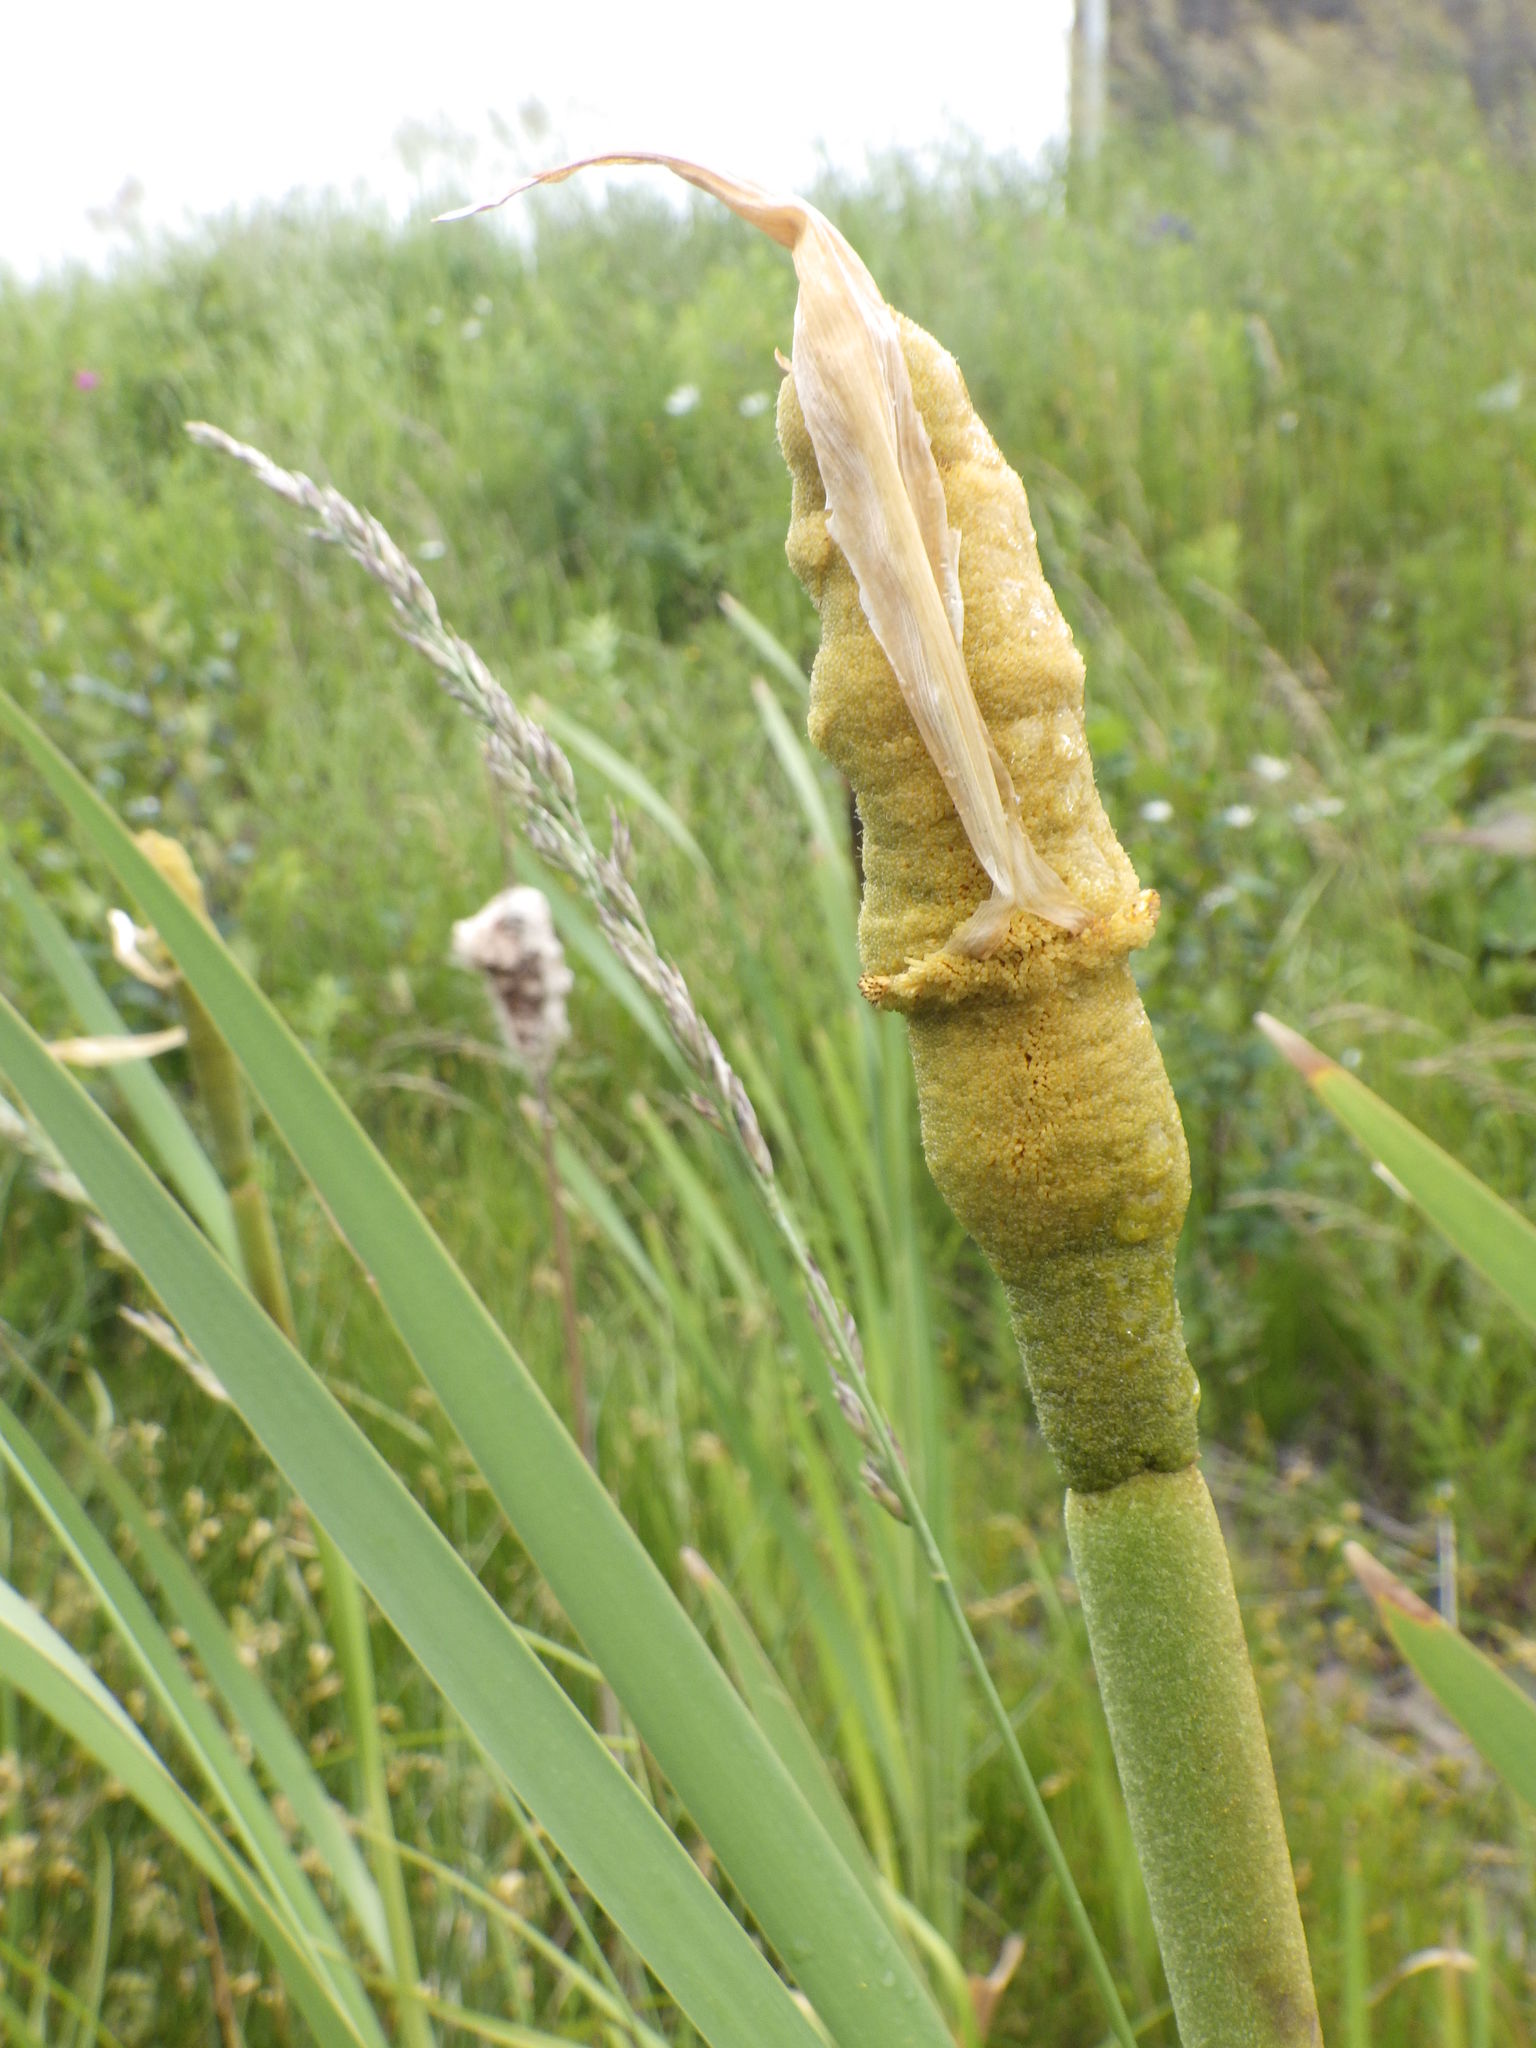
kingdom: Plantae
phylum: Tracheophyta
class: Liliopsida
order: Poales
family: Typhaceae
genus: Typha
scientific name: Typha latifolia
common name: Broadleaf cattail
